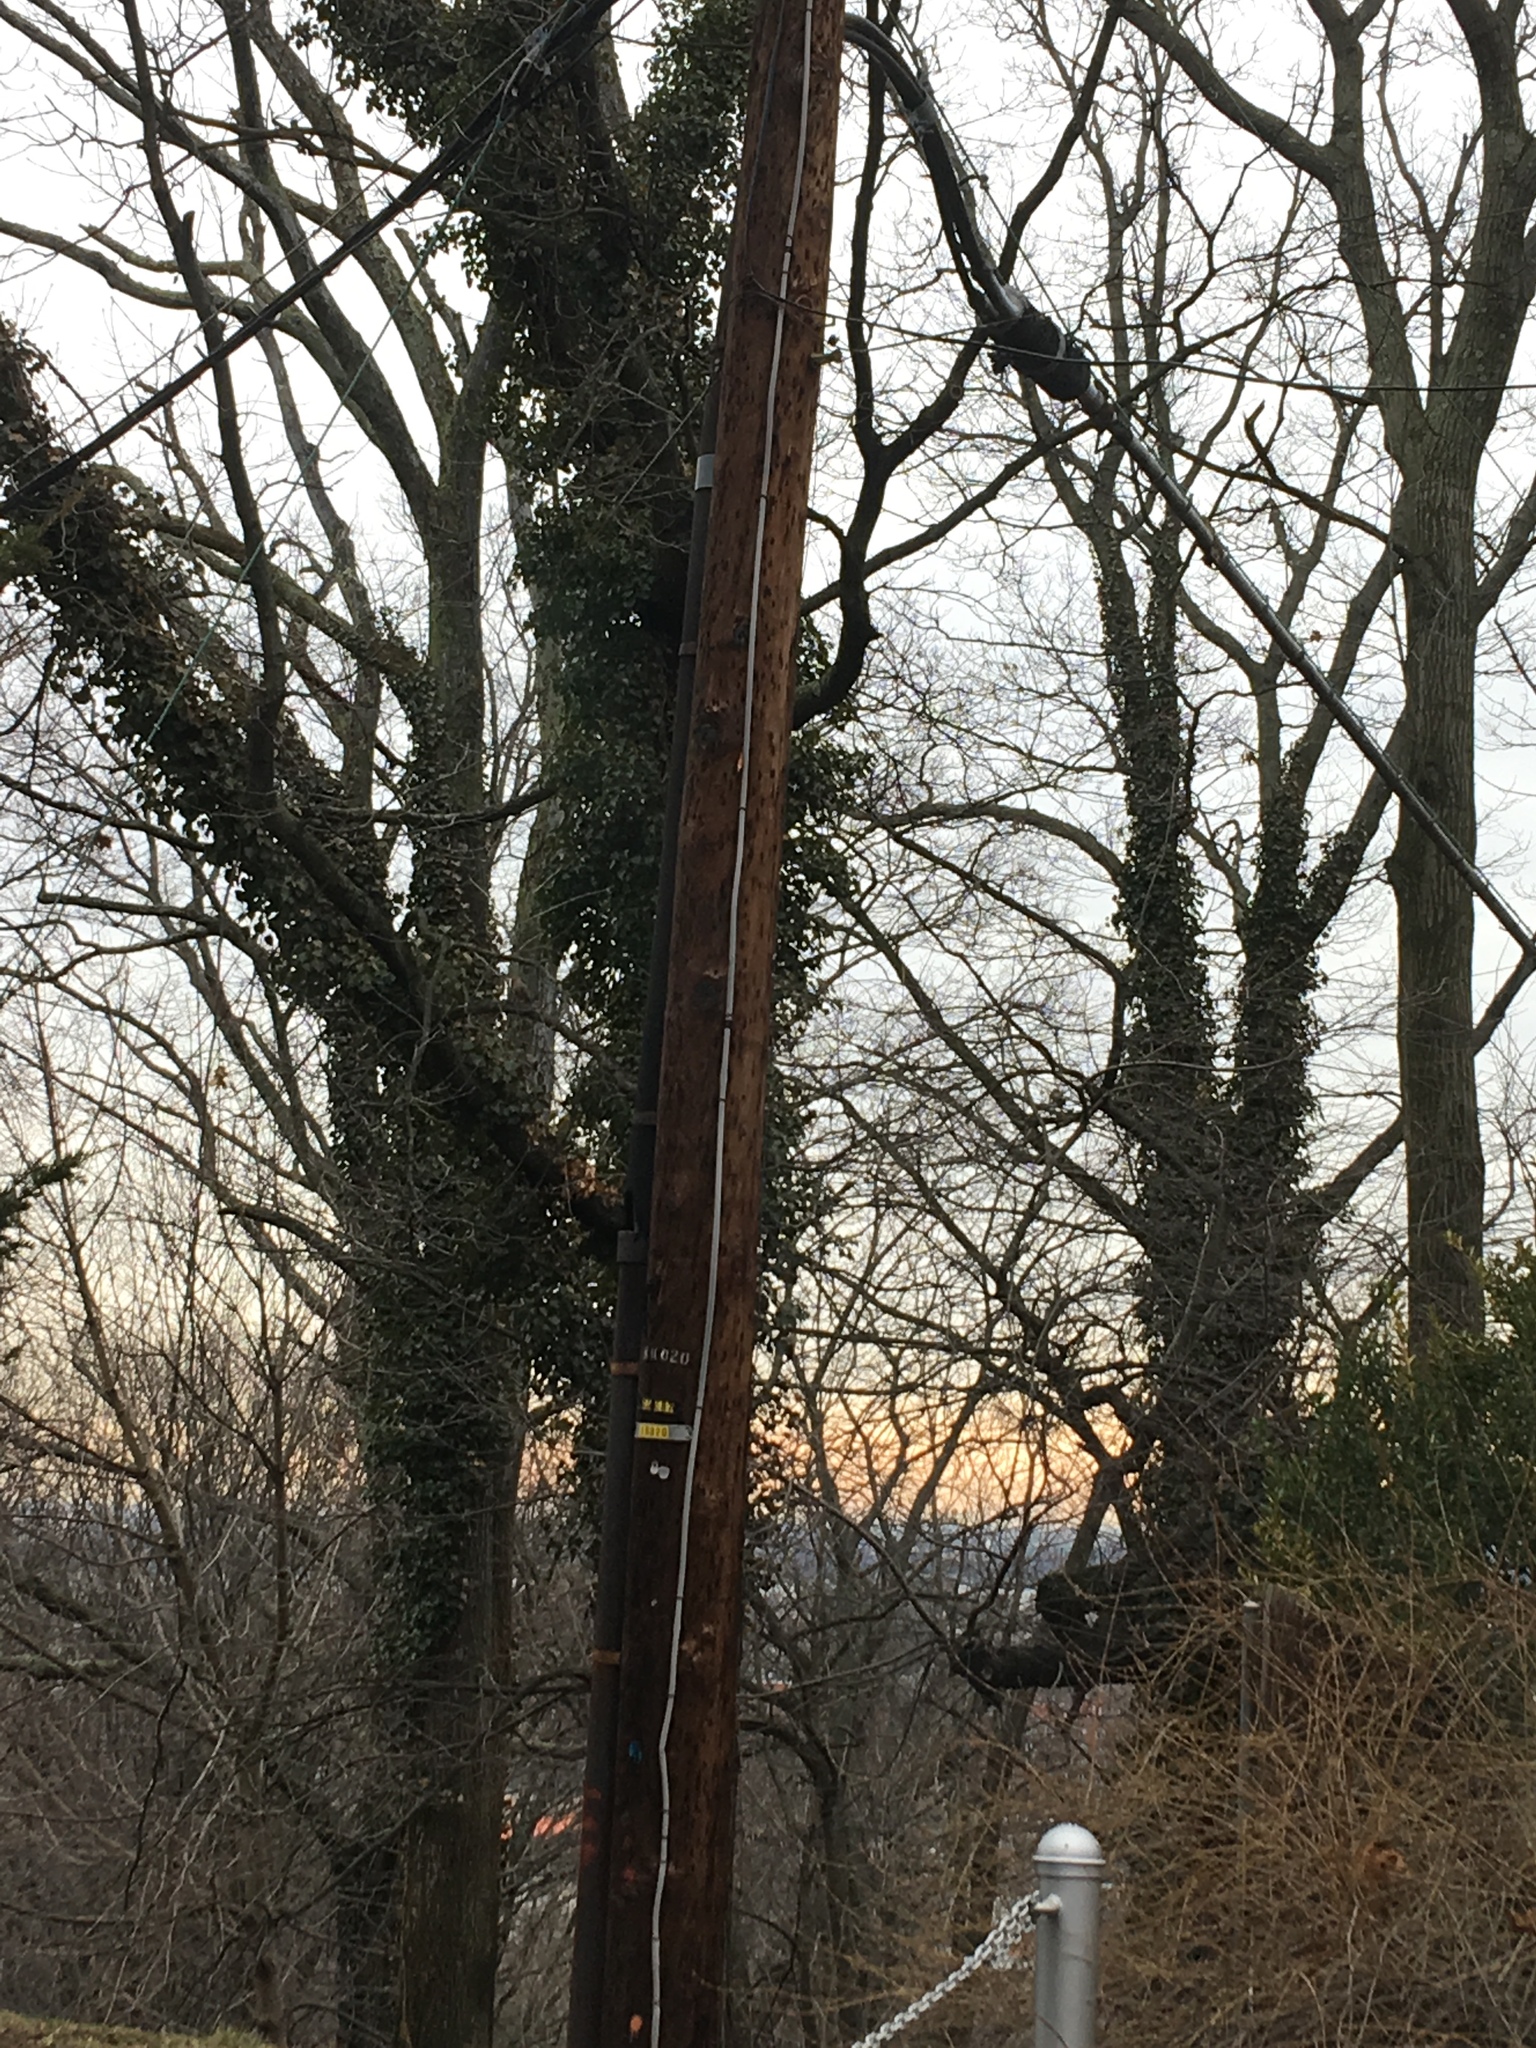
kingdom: Plantae
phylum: Tracheophyta
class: Magnoliopsida
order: Apiales
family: Araliaceae
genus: Hedera
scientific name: Hedera helix
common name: Ivy
